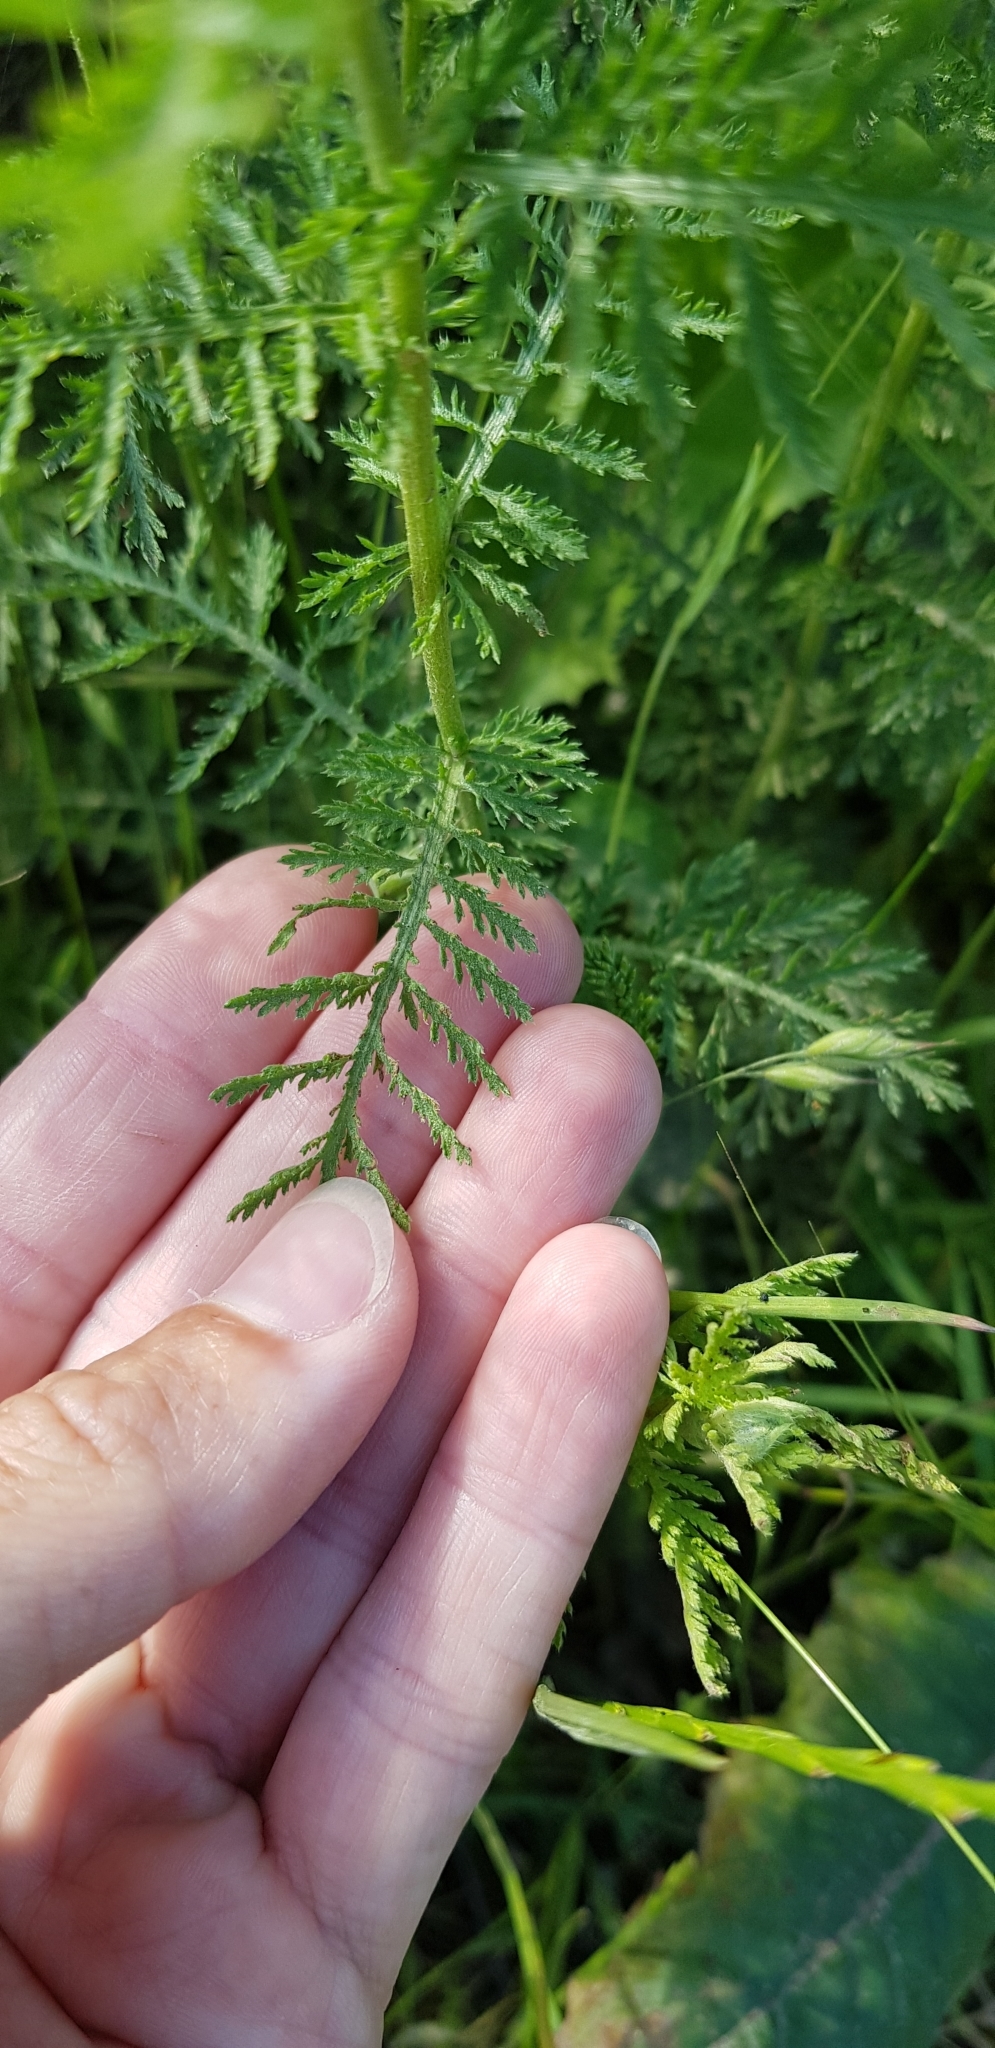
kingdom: Plantae
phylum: Tracheophyta
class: Magnoliopsida
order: Asterales
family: Asteraceae
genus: Achillea
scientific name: Achillea nobilis
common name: Noble yarrow
